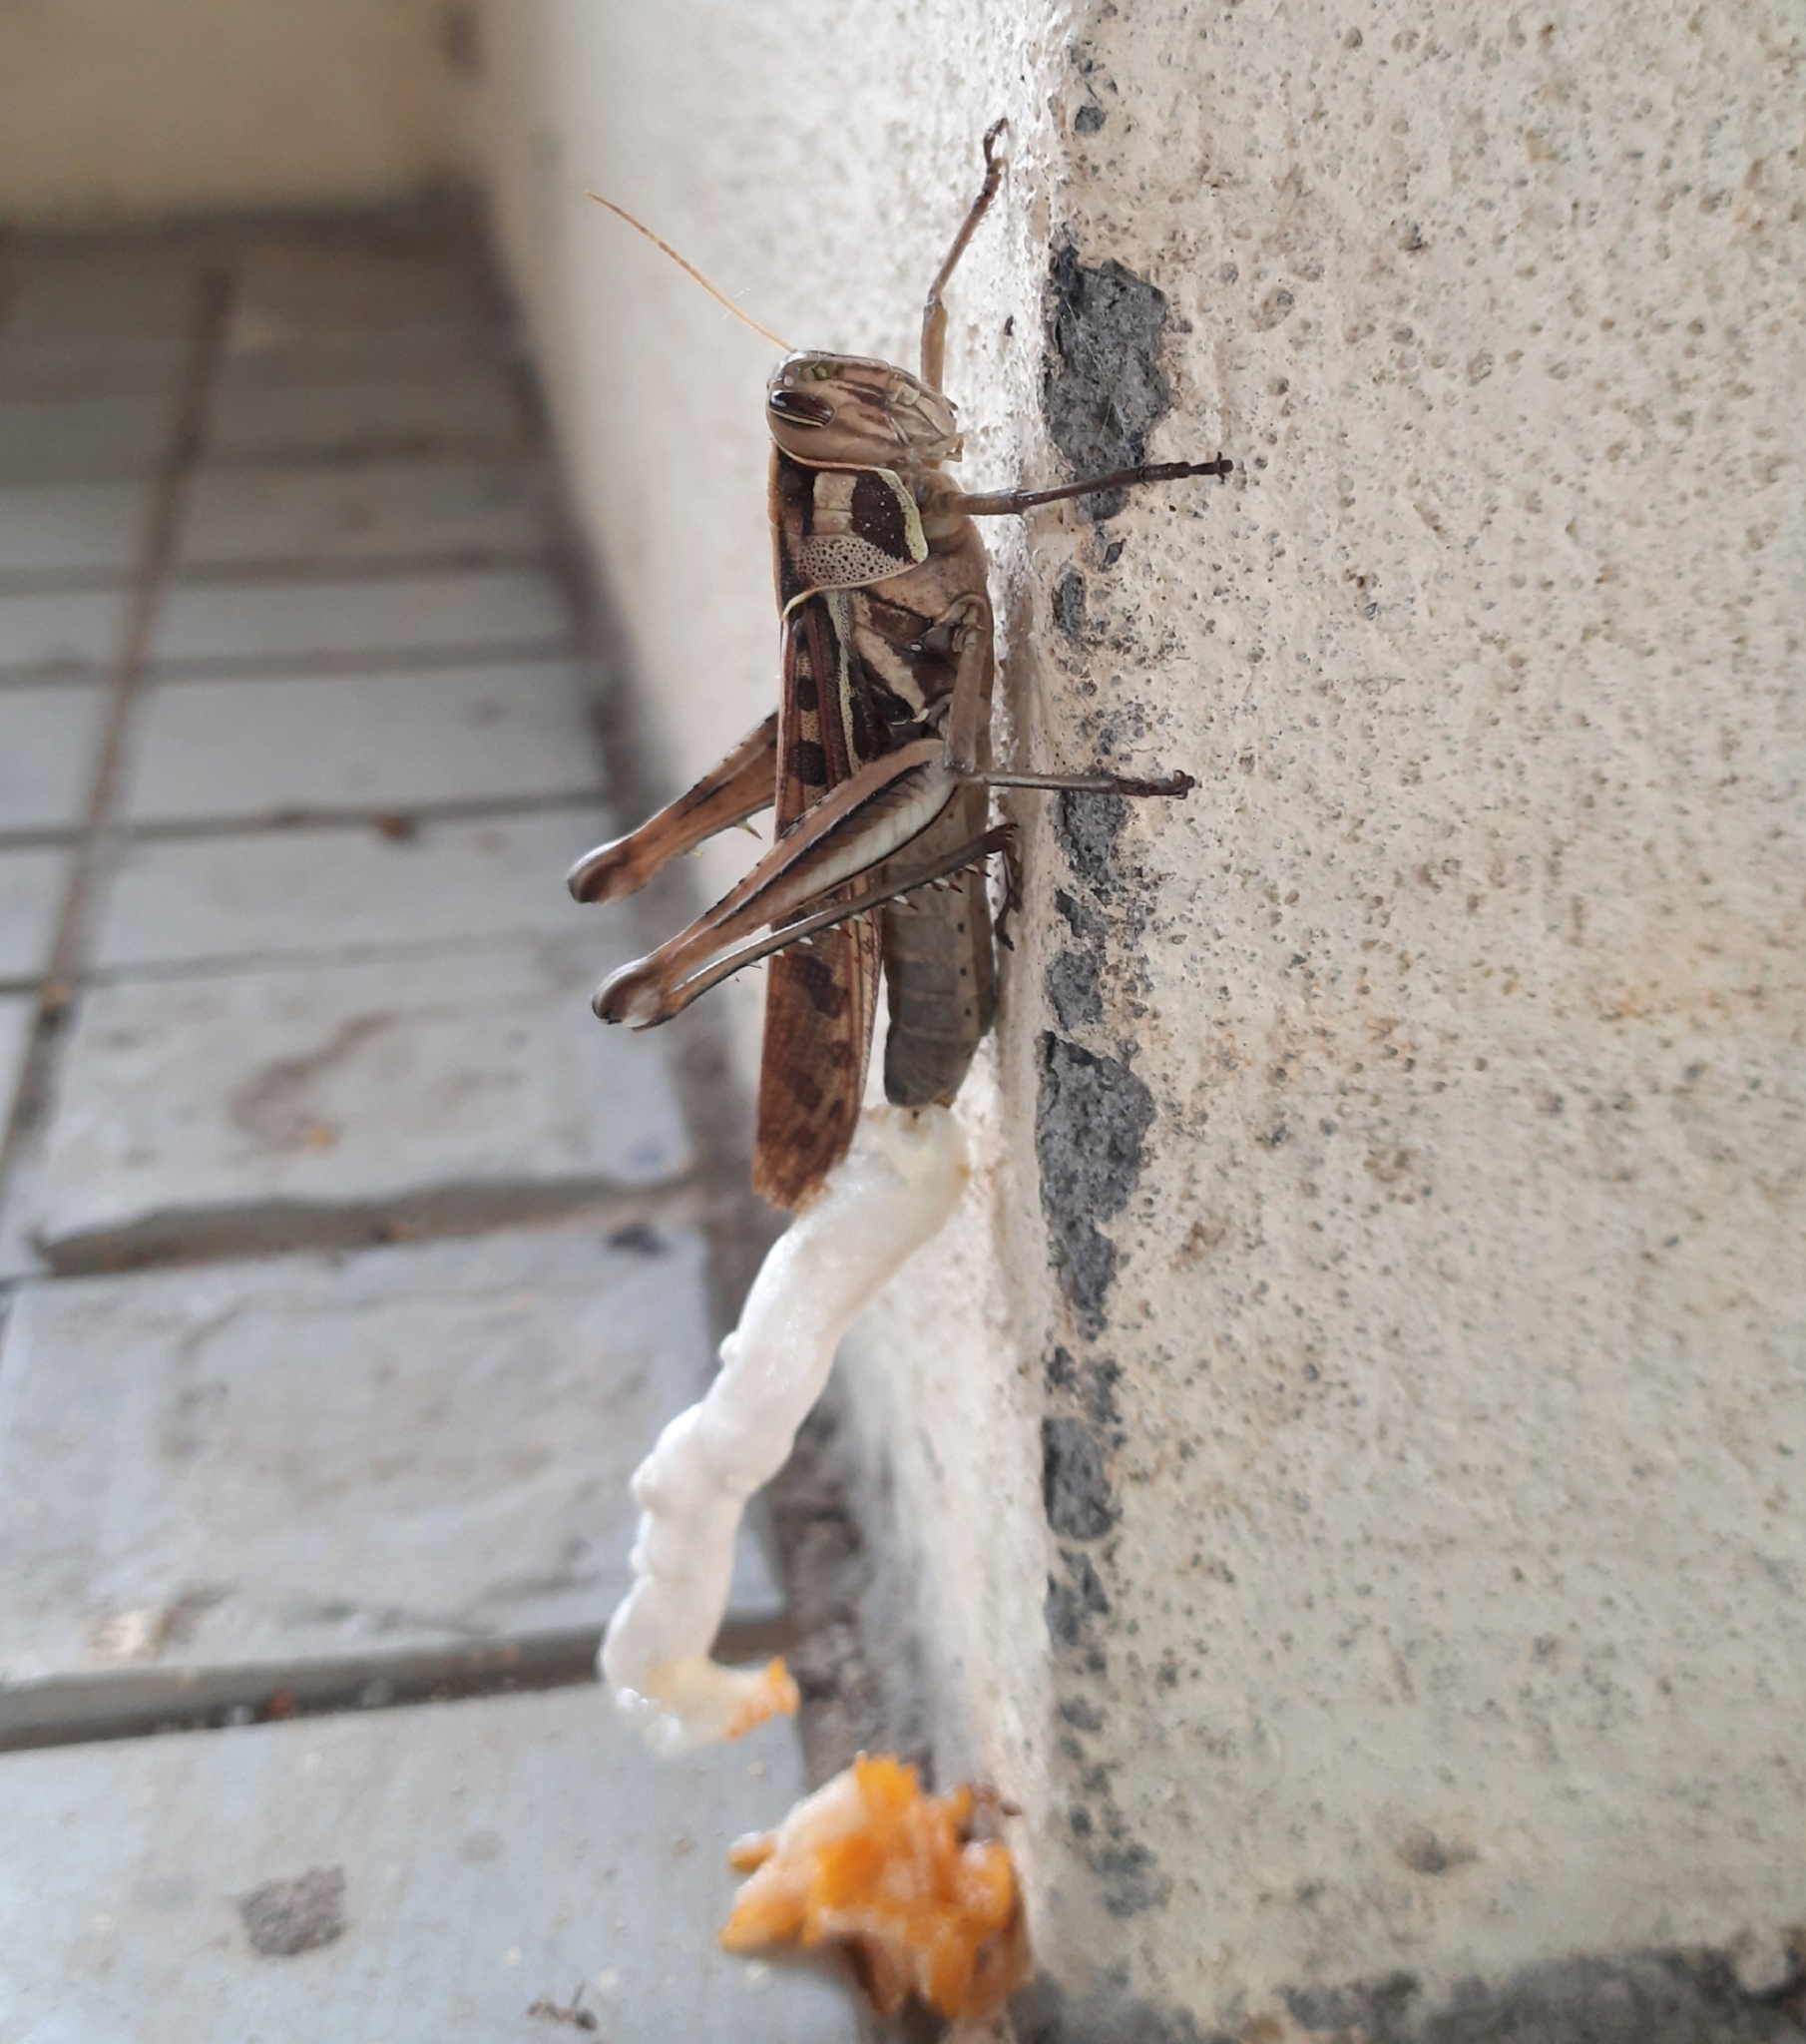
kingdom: Animalia
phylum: Arthropoda
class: Insecta
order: Orthoptera
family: Acrididae
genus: Cyrtacanthacris
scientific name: Cyrtacanthacris tatarica
